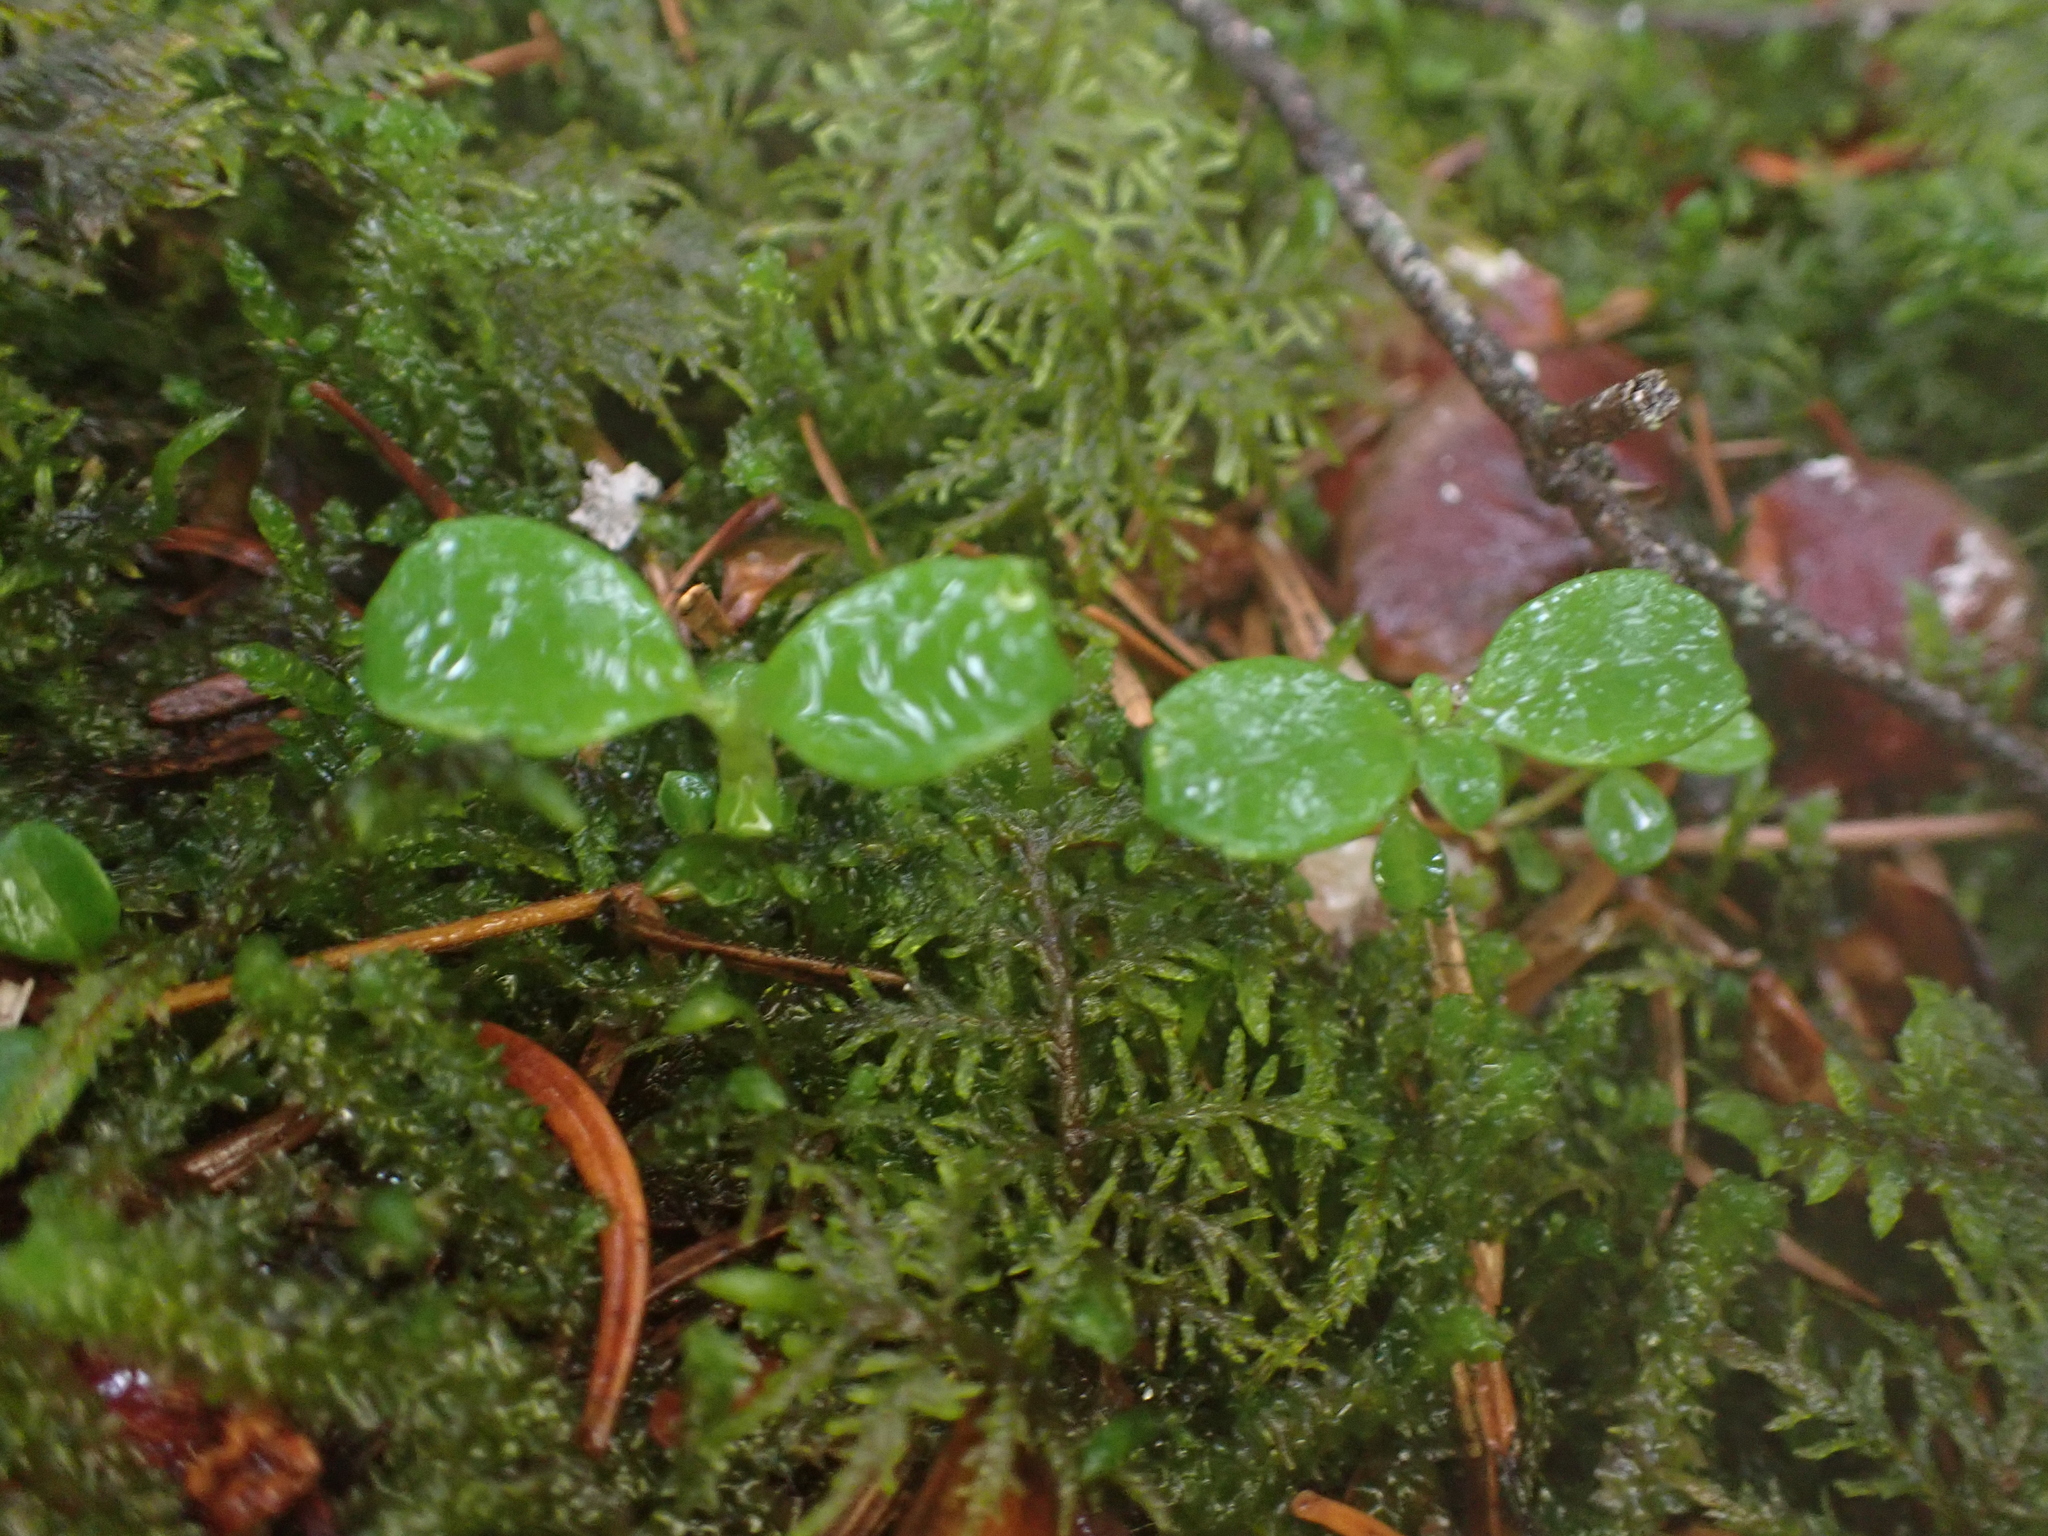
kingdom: Plantae
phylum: Tracheophyta
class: Magnoliopsida
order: Dipsacales
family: Caprifoliaceae
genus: Linnaea
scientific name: Linnaea borealis
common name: Twinflower
